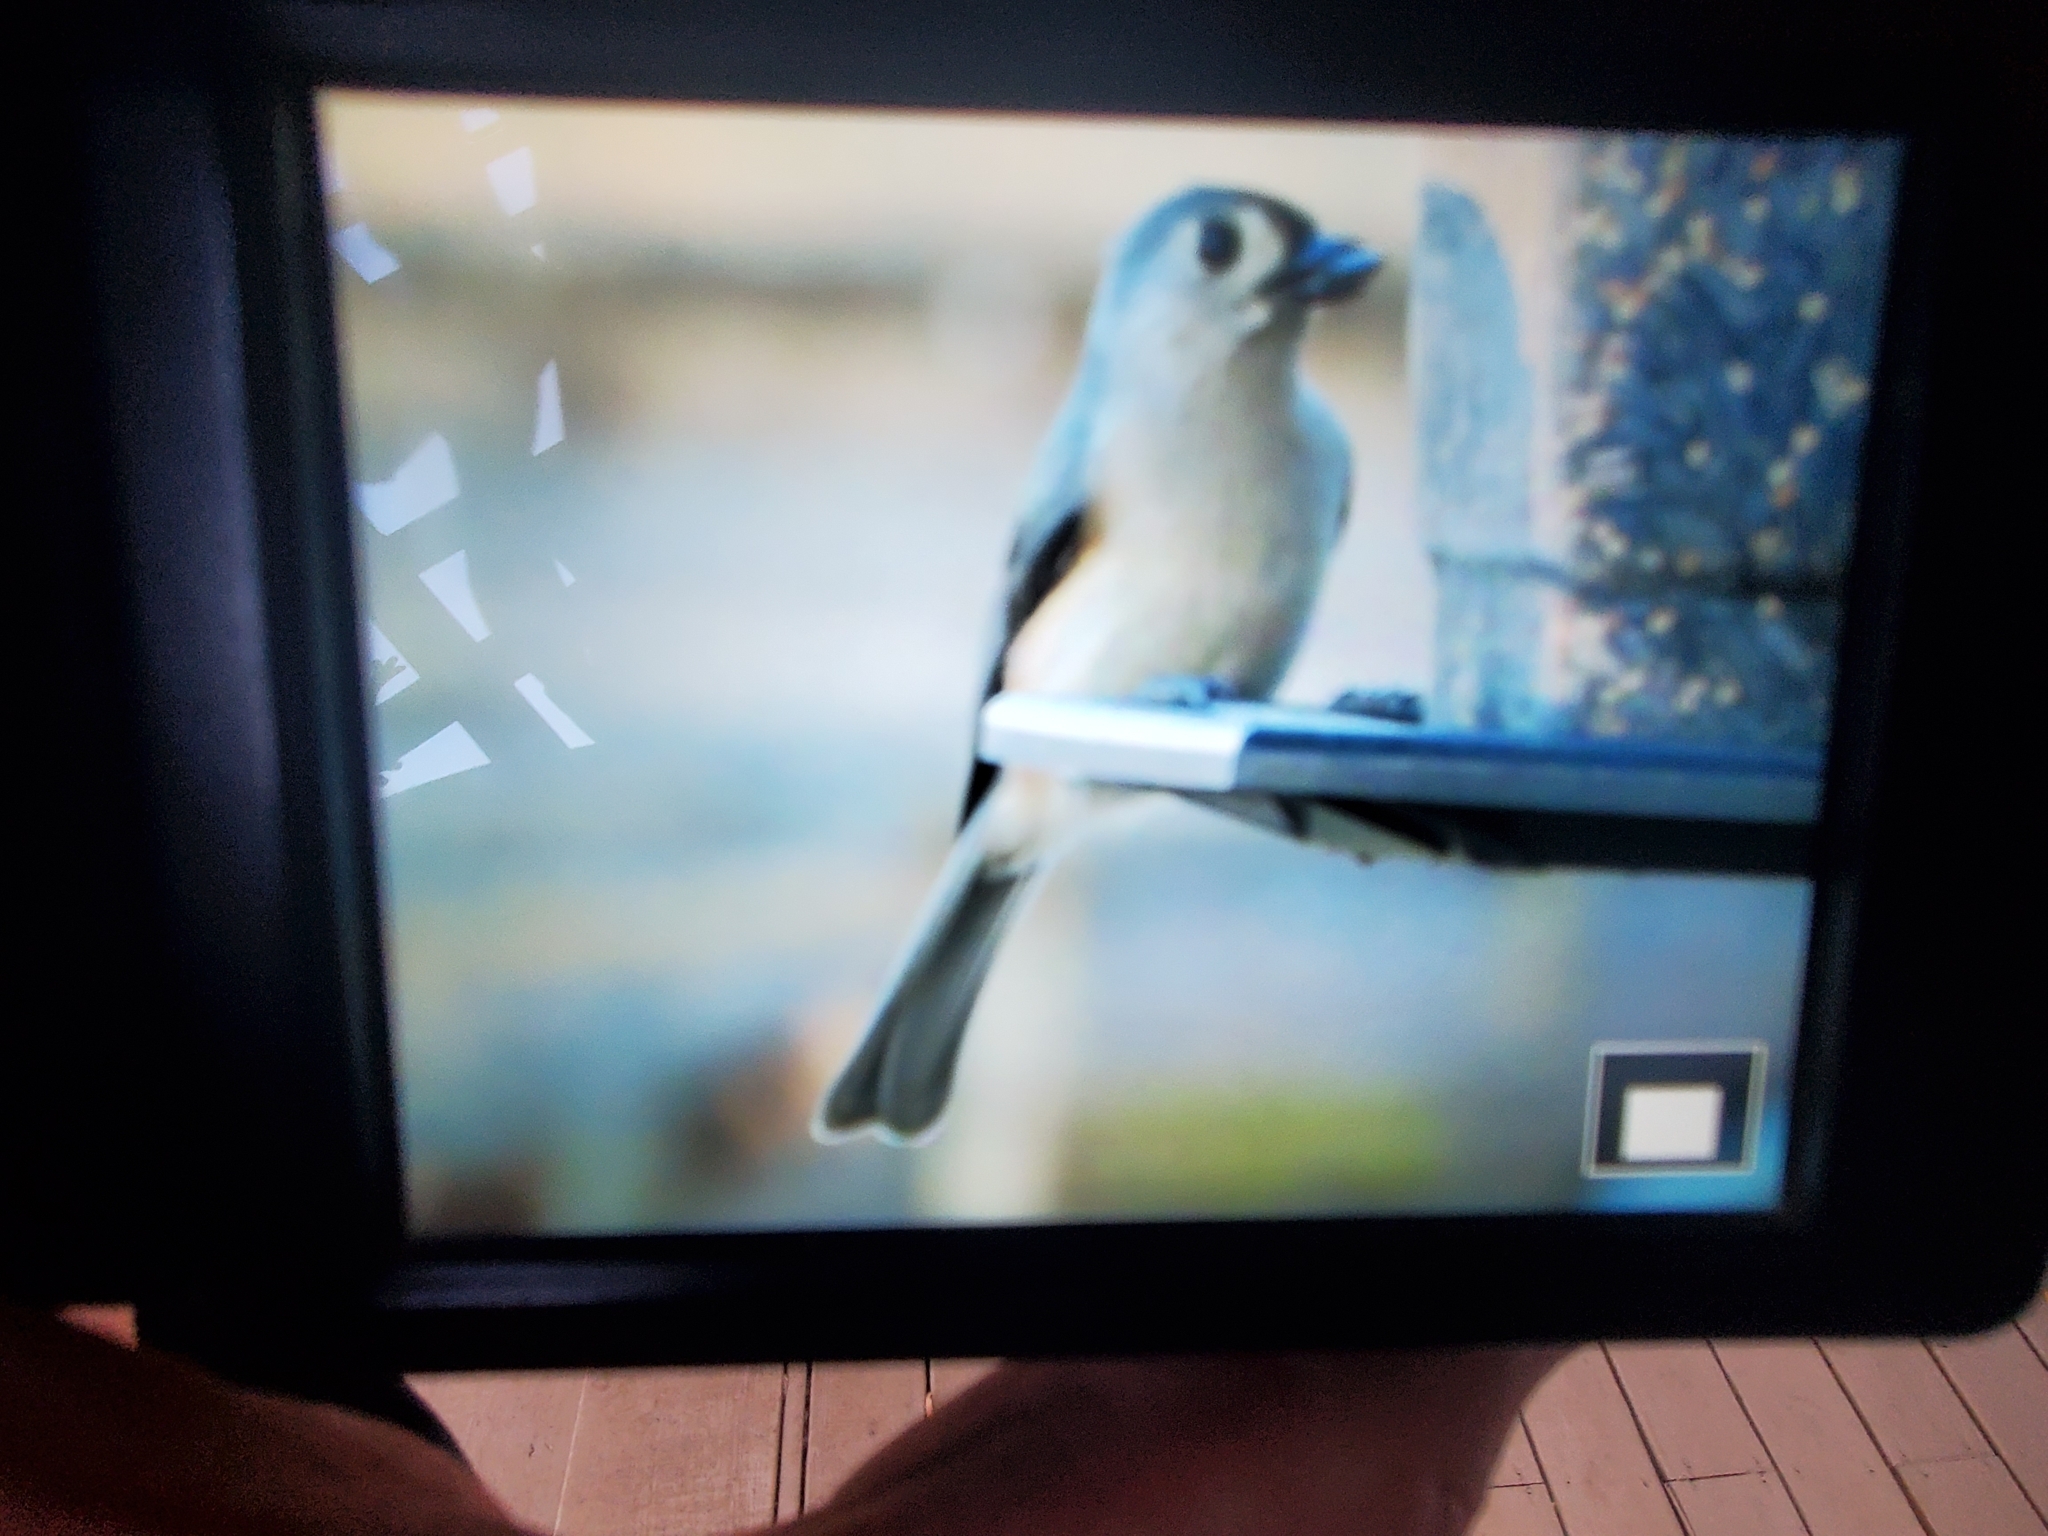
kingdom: Animalia
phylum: Chordata
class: Aves
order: Passeriformes
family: Paridae
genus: Baeolophus
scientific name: Baeolophus bicolor
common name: Tufted titmouse
